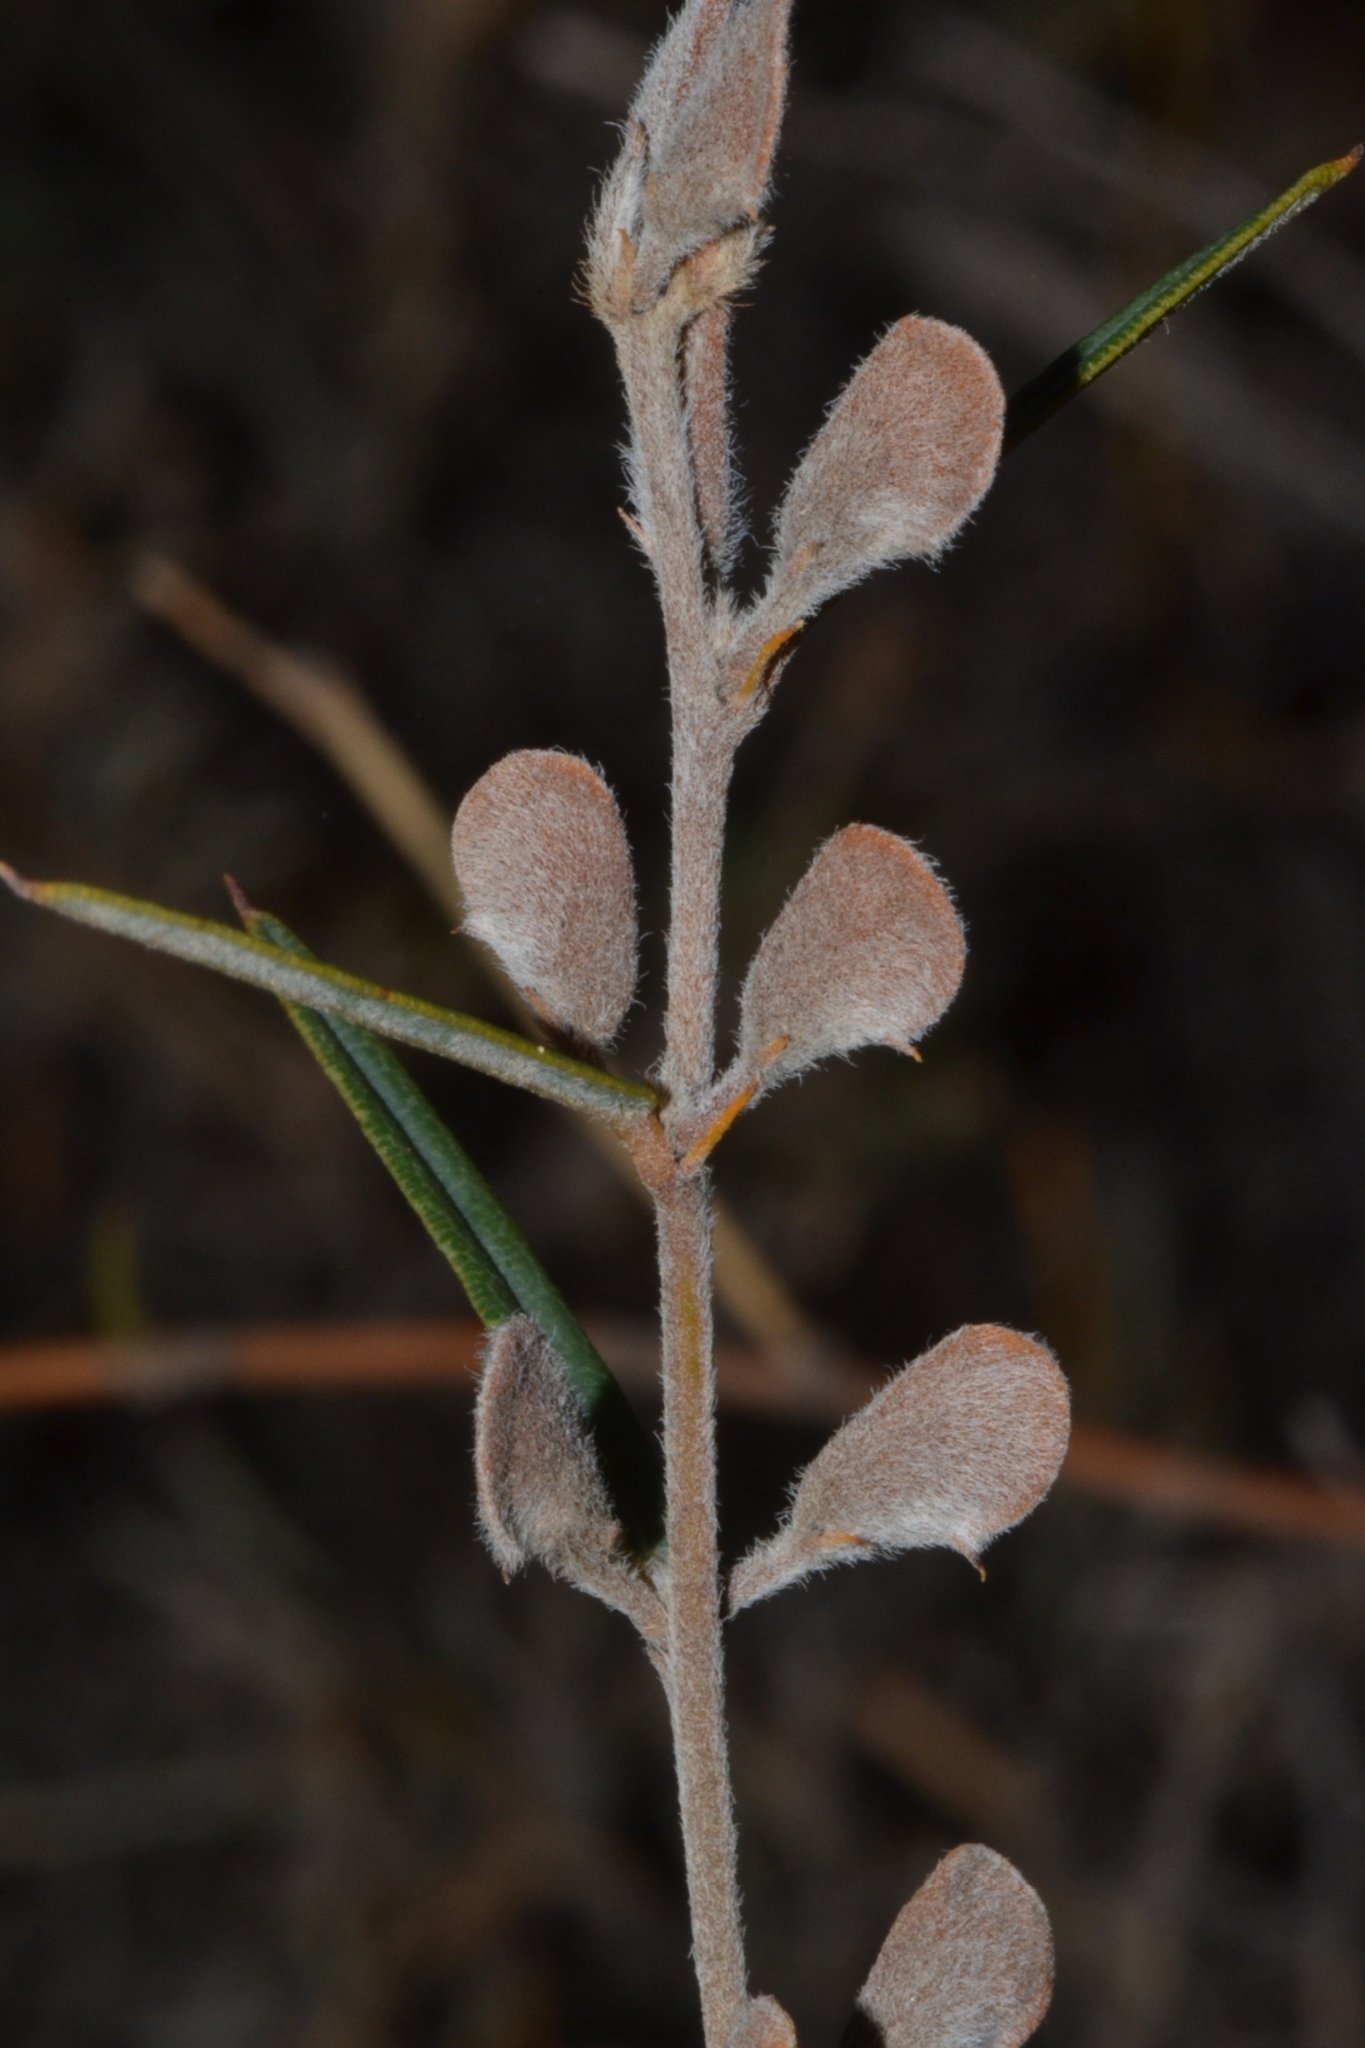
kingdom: Plantae
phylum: Tracheophyta
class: Magnoliopsida
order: Fabales
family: Fabaceae
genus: Hovea
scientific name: Hovea trisperma
